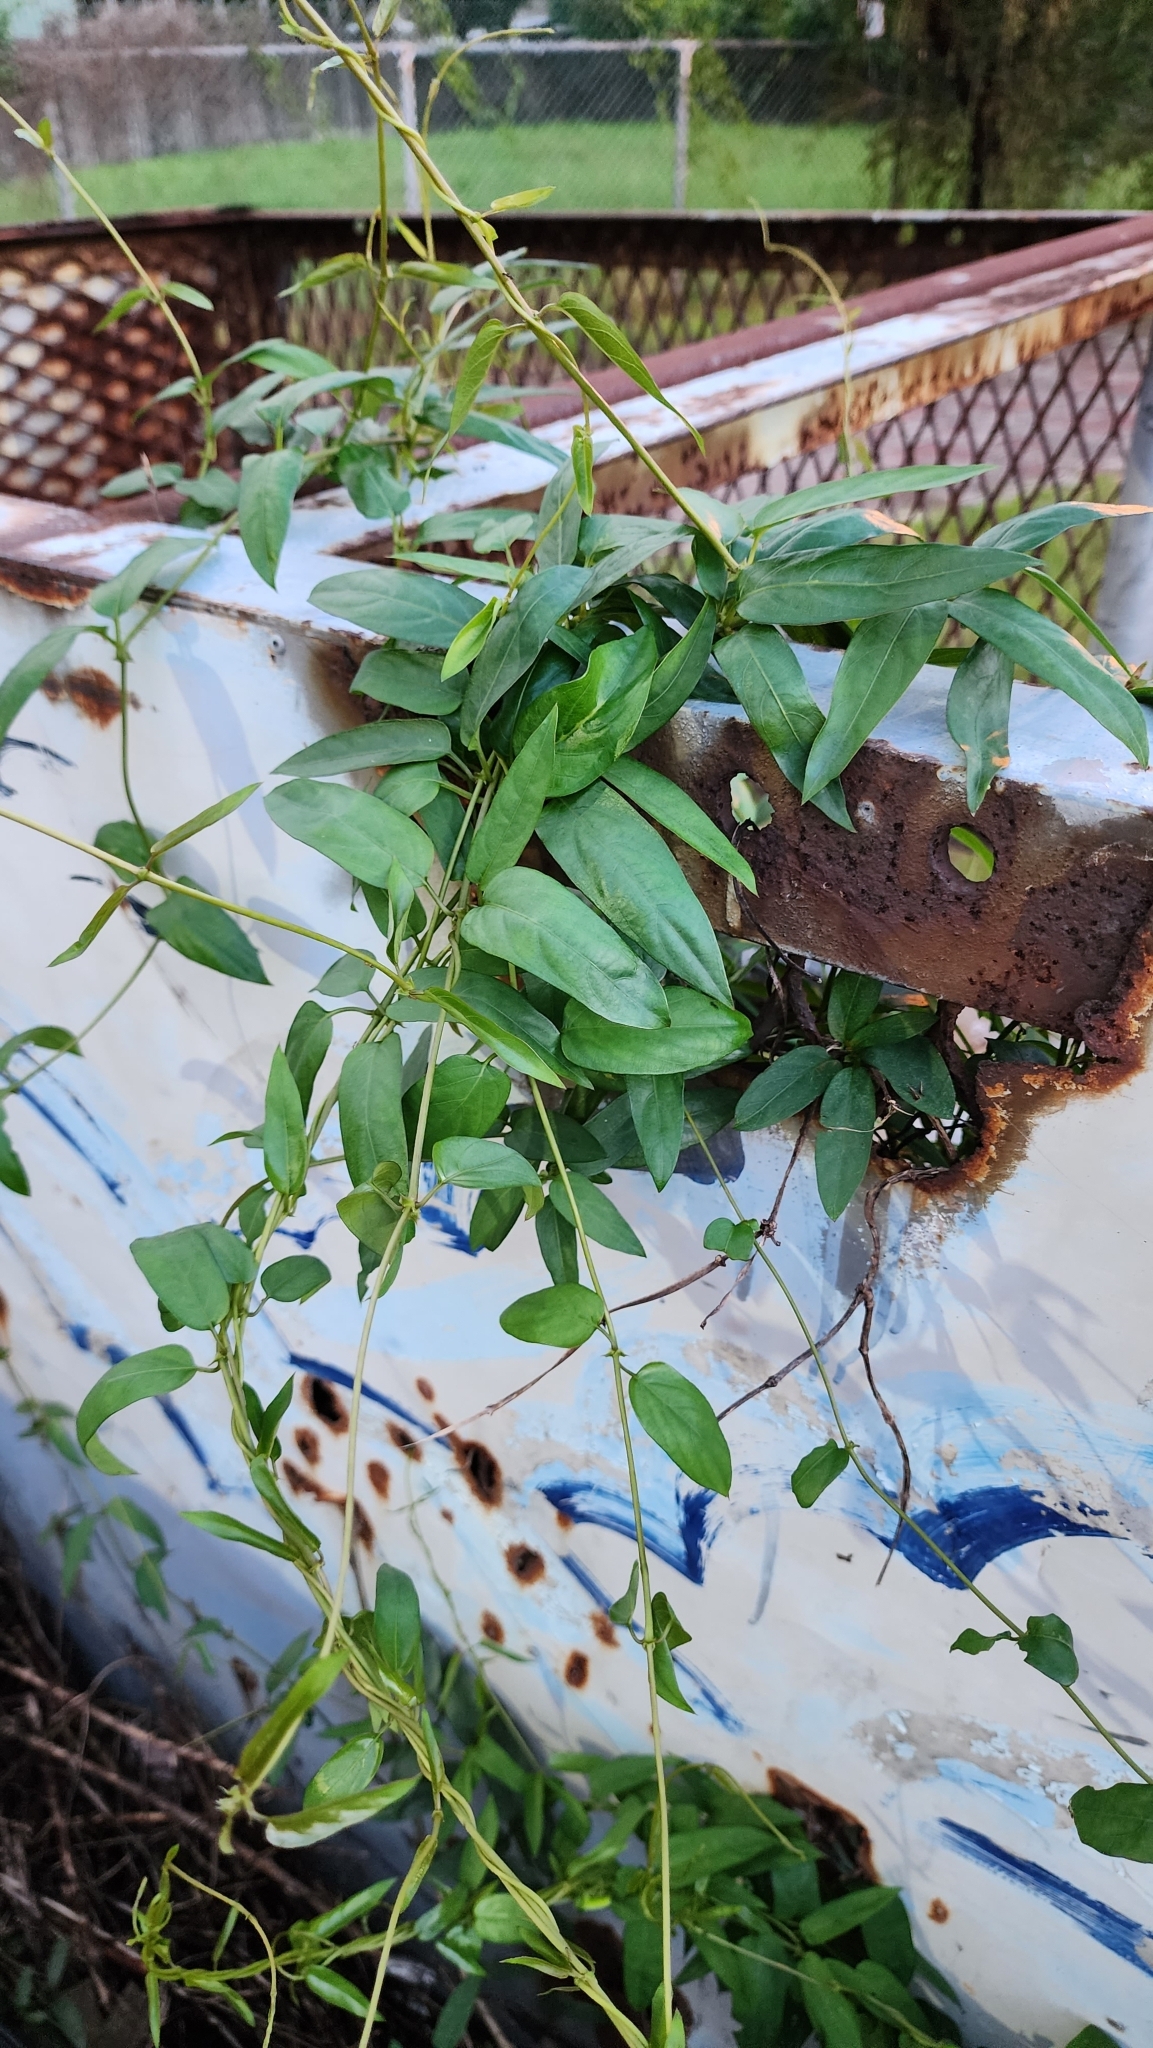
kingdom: Plantae
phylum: Tracheophyta
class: Magnoliopsida
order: Gentianales
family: Rubiaceae
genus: Paederia
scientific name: Paederia foetida
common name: Stinkvine
